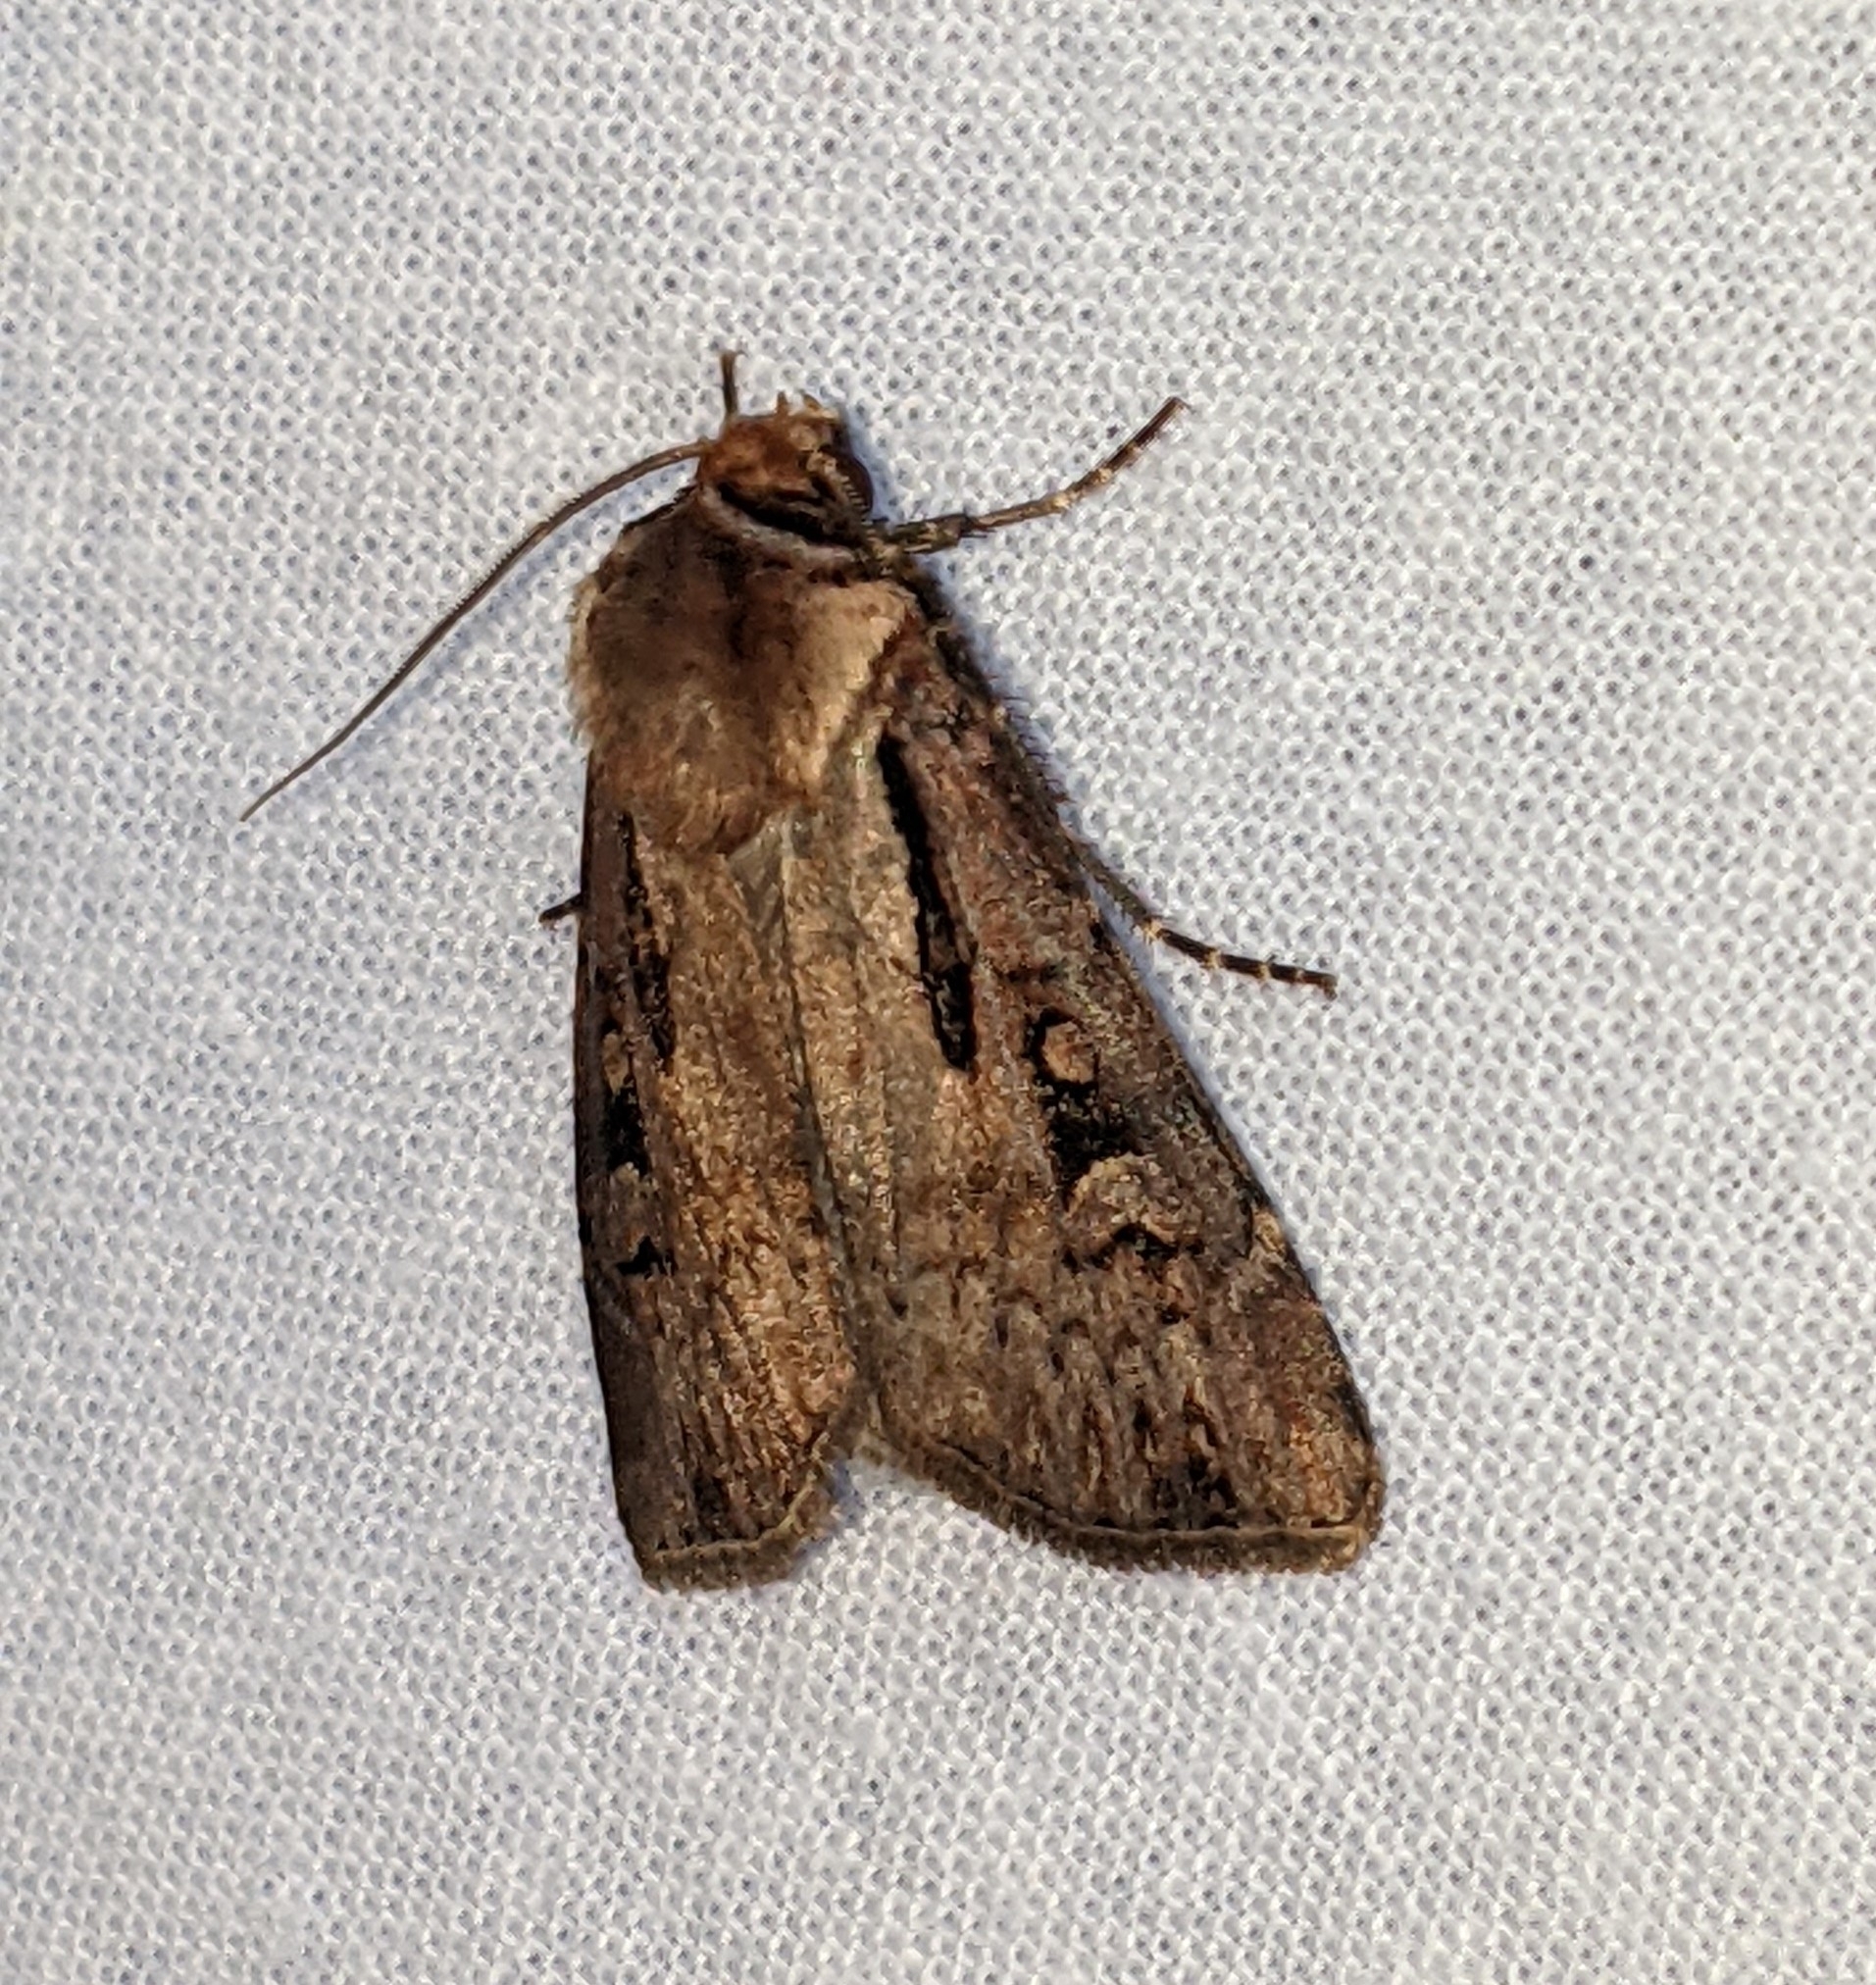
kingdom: Animalia
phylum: Arthropoda
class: Insecta
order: Lepidoptera
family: Noctuidae
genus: Agrotis
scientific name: Agrotis vancouverensis
